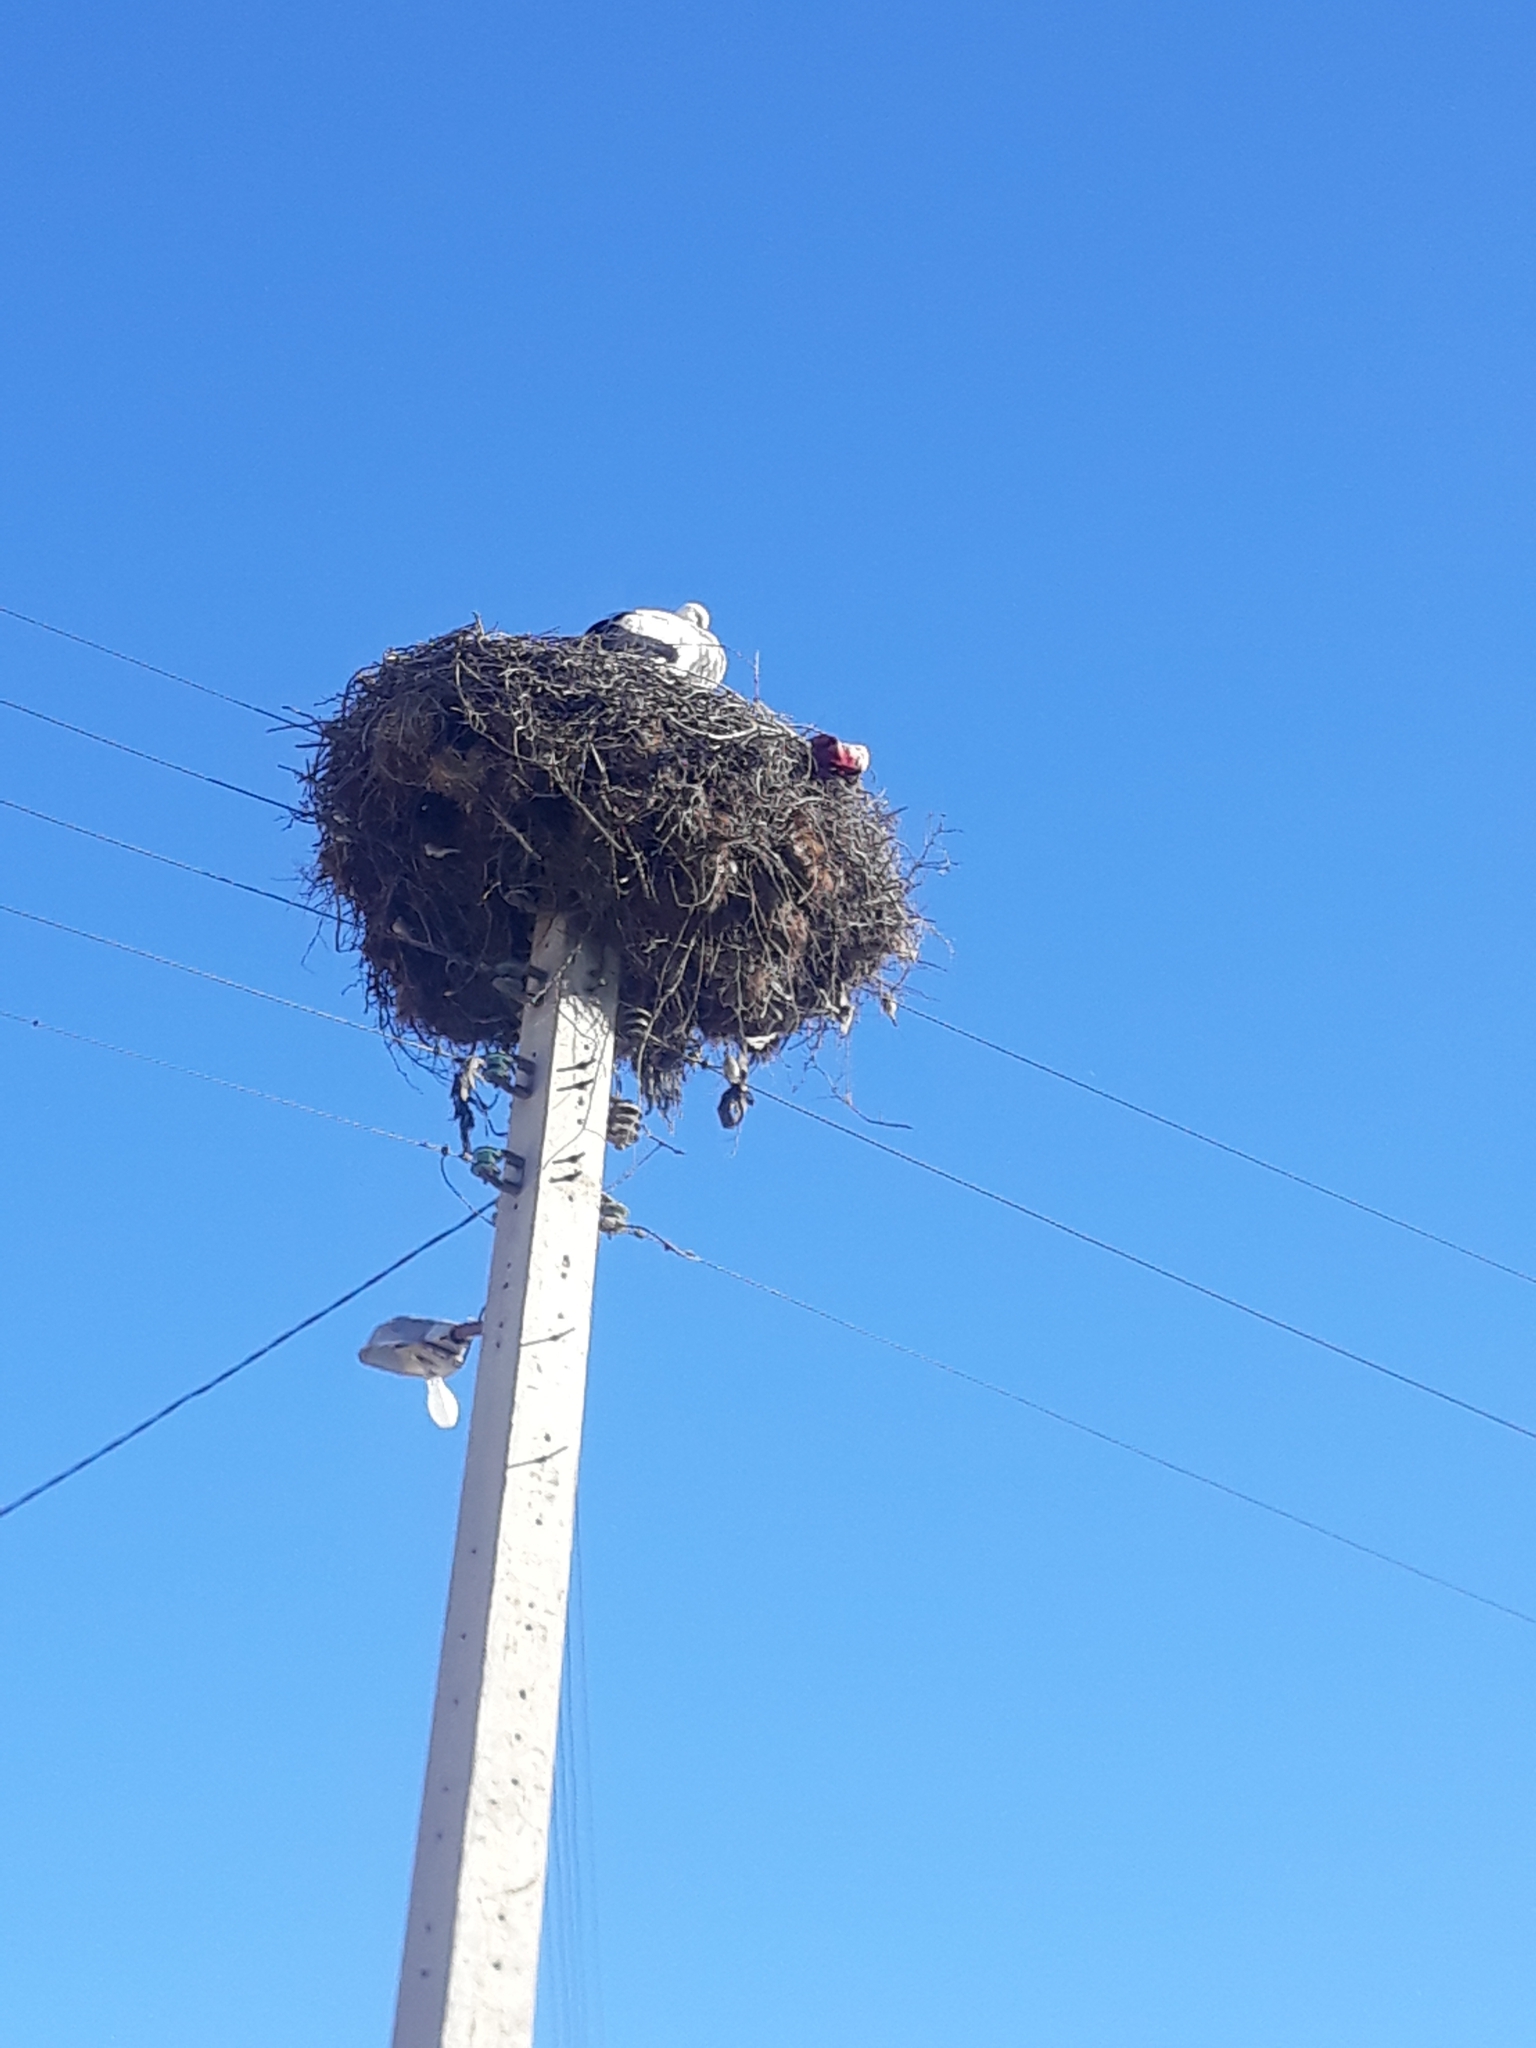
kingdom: Animalia
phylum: Chordata
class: Aves
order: Ciconiiformes
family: Ciconiidae
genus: Ciconia
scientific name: Ciconia ciconia
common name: White stork
